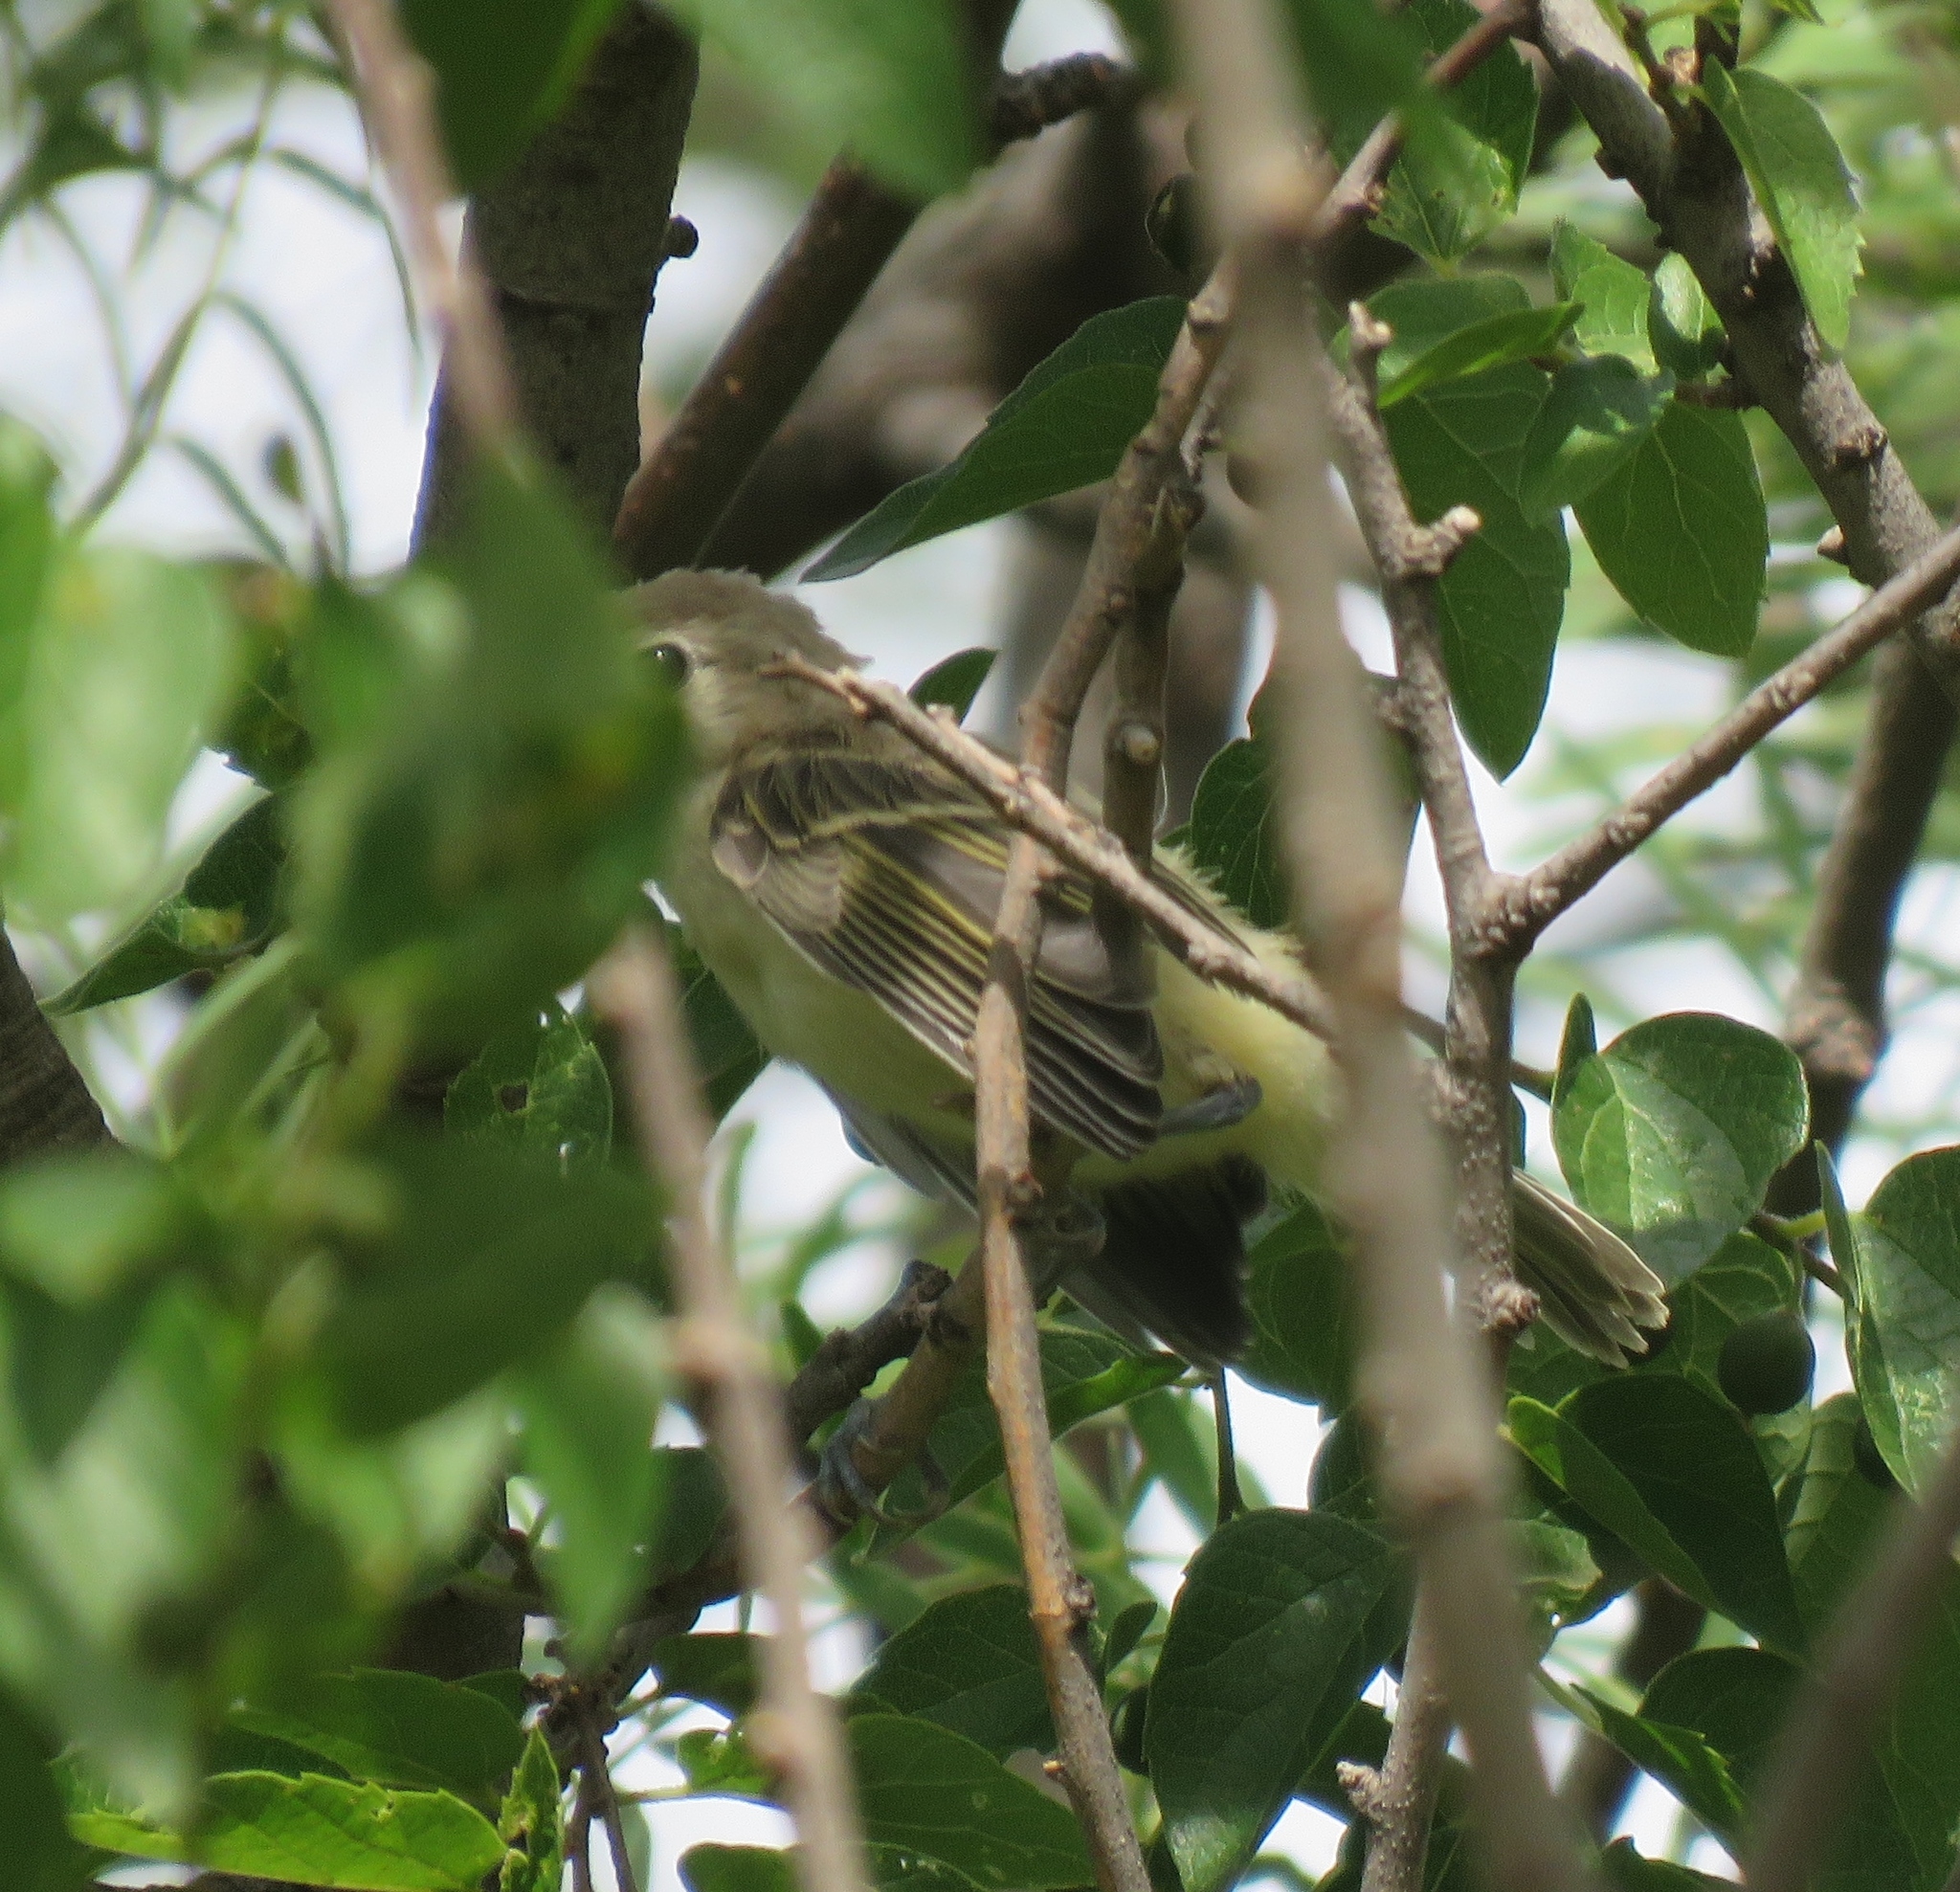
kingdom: Animalia
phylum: Chordata
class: Aves
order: Passeriformes
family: Vireonidae
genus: Vireo
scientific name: Vireo bellii
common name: Bell's vireo
